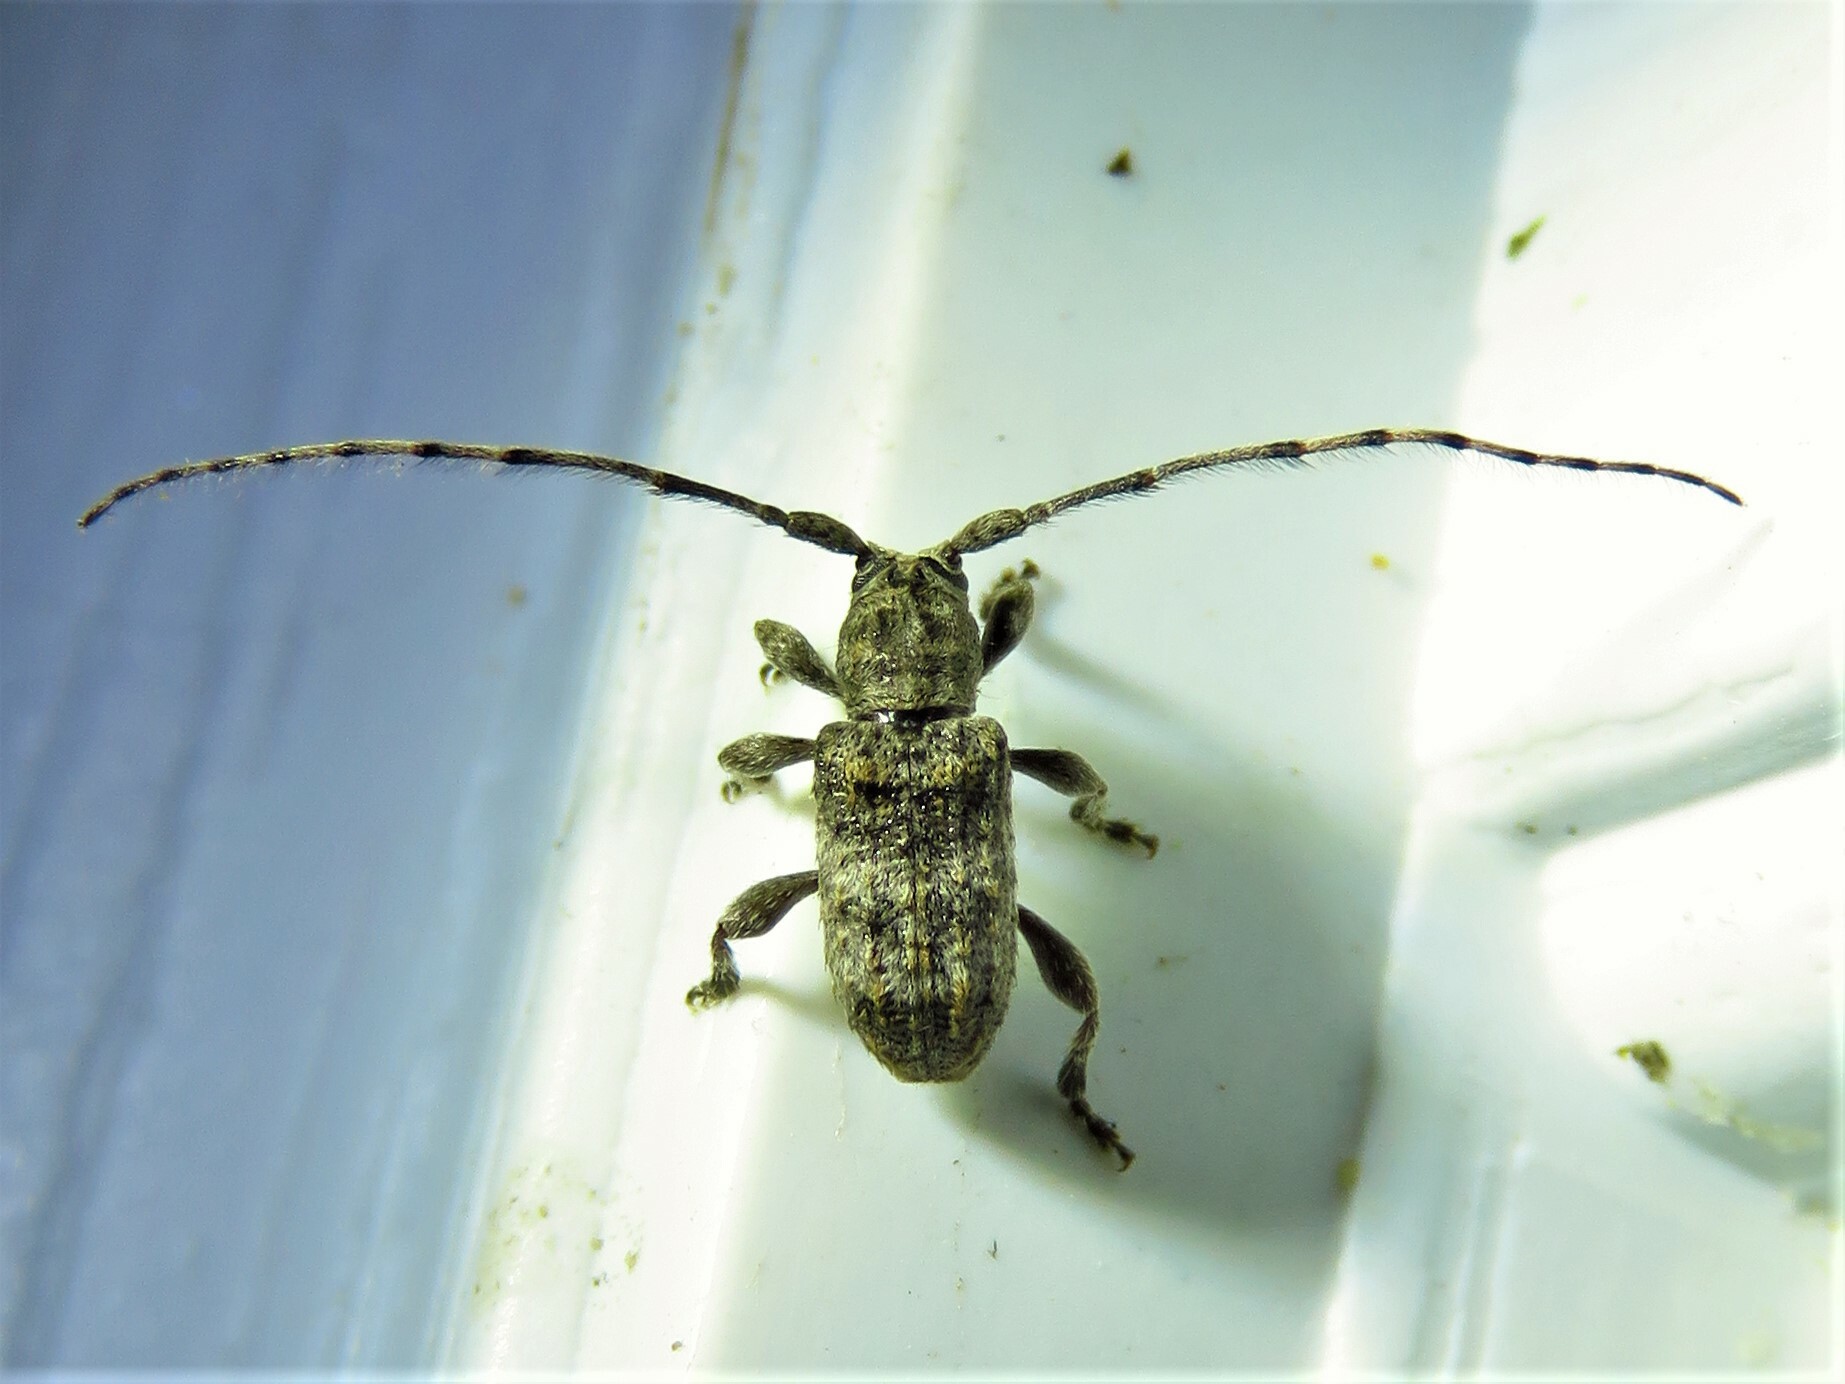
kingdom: Animalia
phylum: Arthropoda
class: Insecta
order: Coleoptera
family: Cerambycidae
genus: Ecyrus
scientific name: Ecyrus dasycerus
